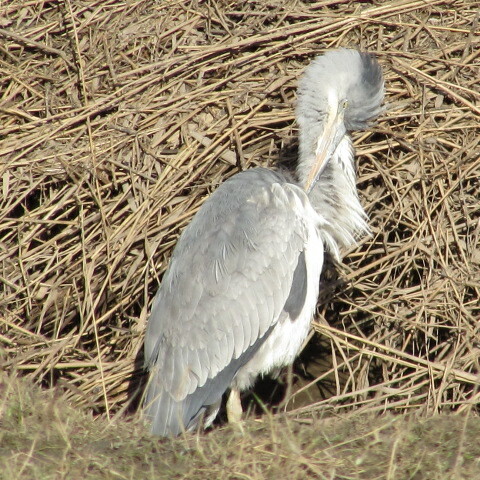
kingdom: Animalia
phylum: Chordata
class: Aves
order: Pelecaniformes
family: Ardeidae
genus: Ardea
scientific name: Ardea cinerea
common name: Grey heron
